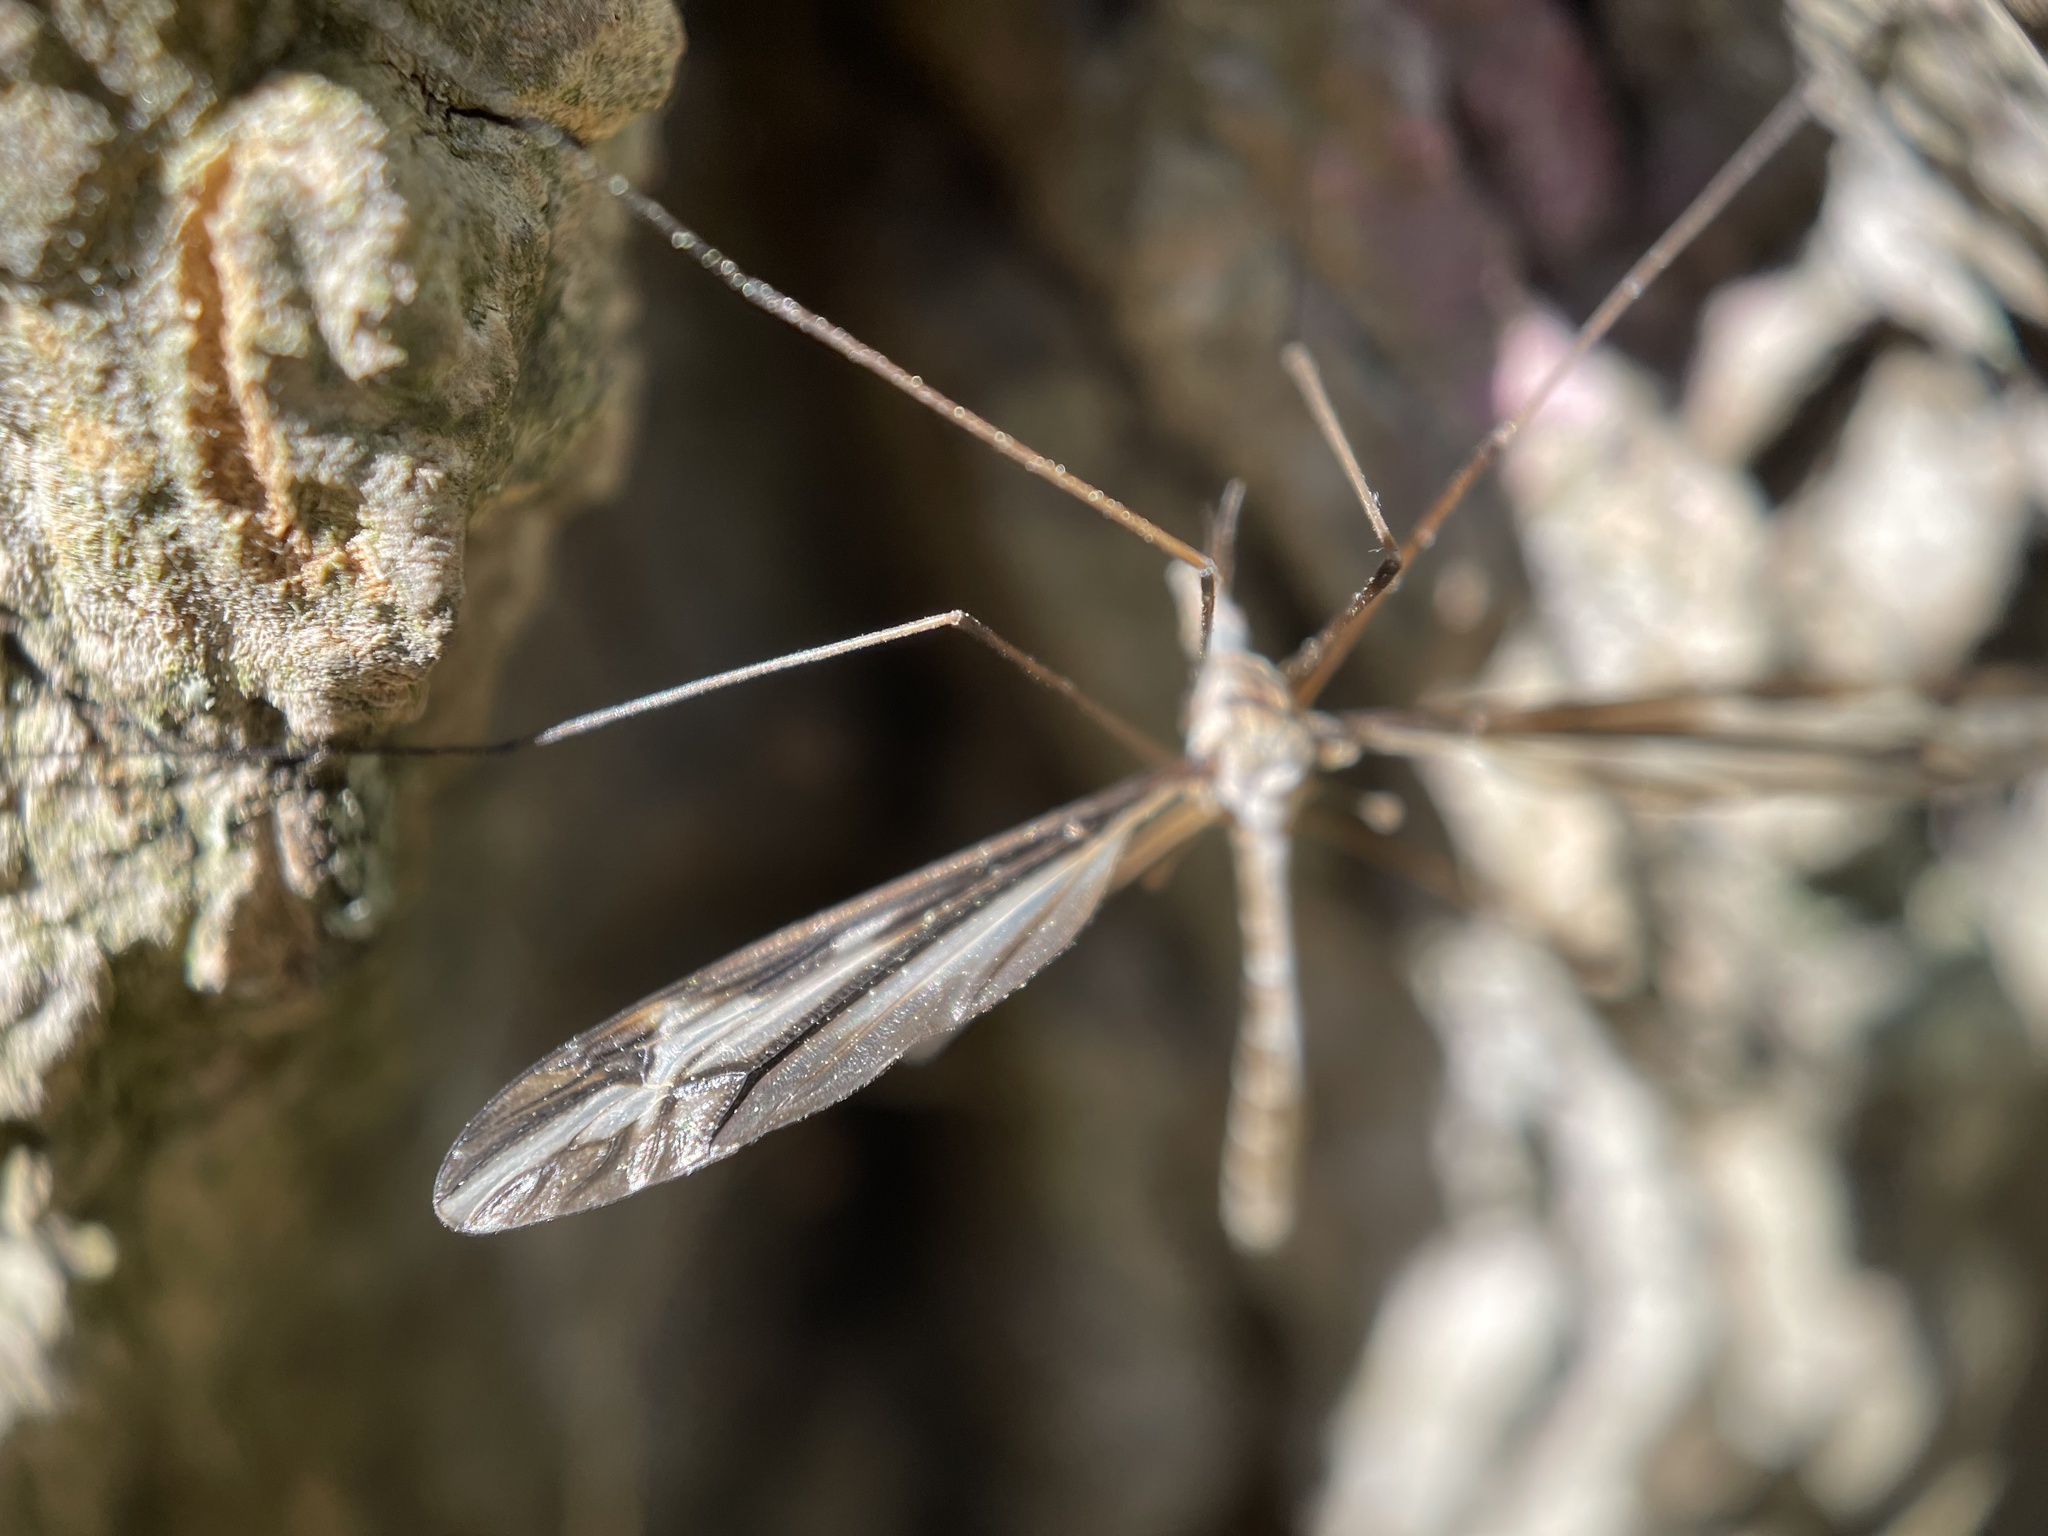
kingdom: Animalia
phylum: Arthropoda
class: Insecta
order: Diptera
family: Tipulidae
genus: Tipula
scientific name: Tipula furca
